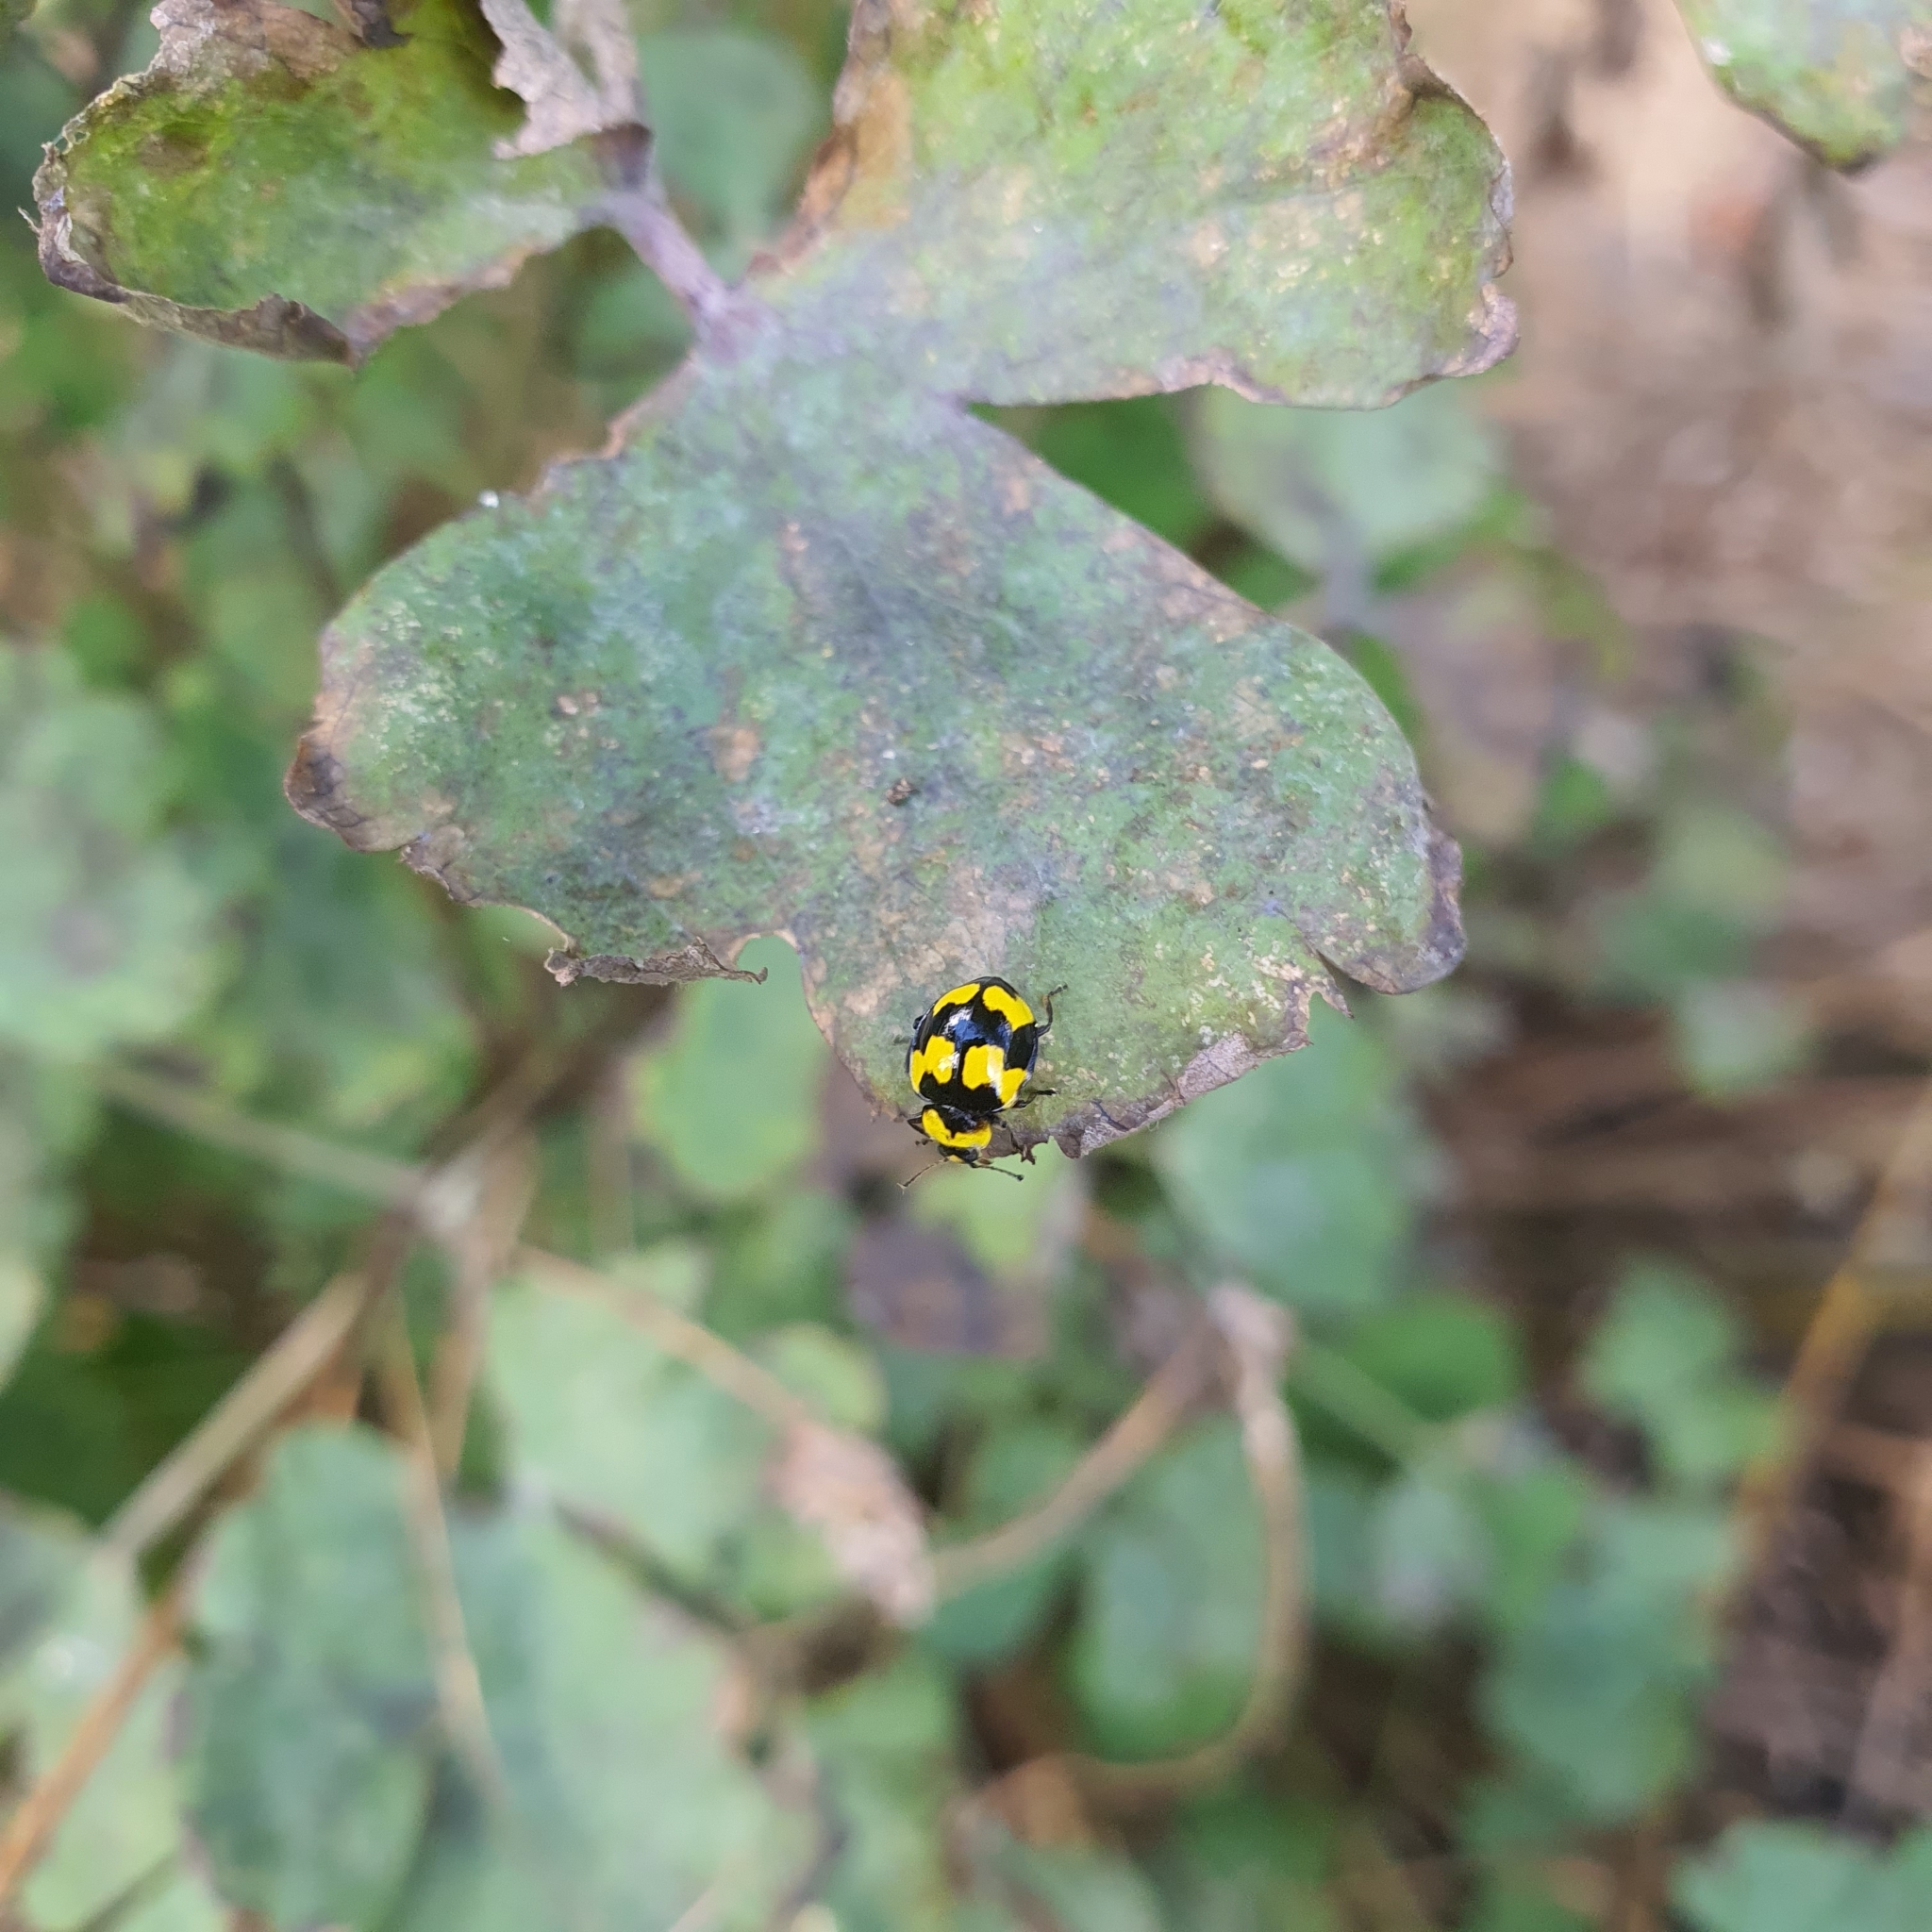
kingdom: Animalia
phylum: Arthropoda
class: Insecta
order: Coleoptera
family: Coccinellidae
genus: Illeis
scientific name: Illeis galbula
